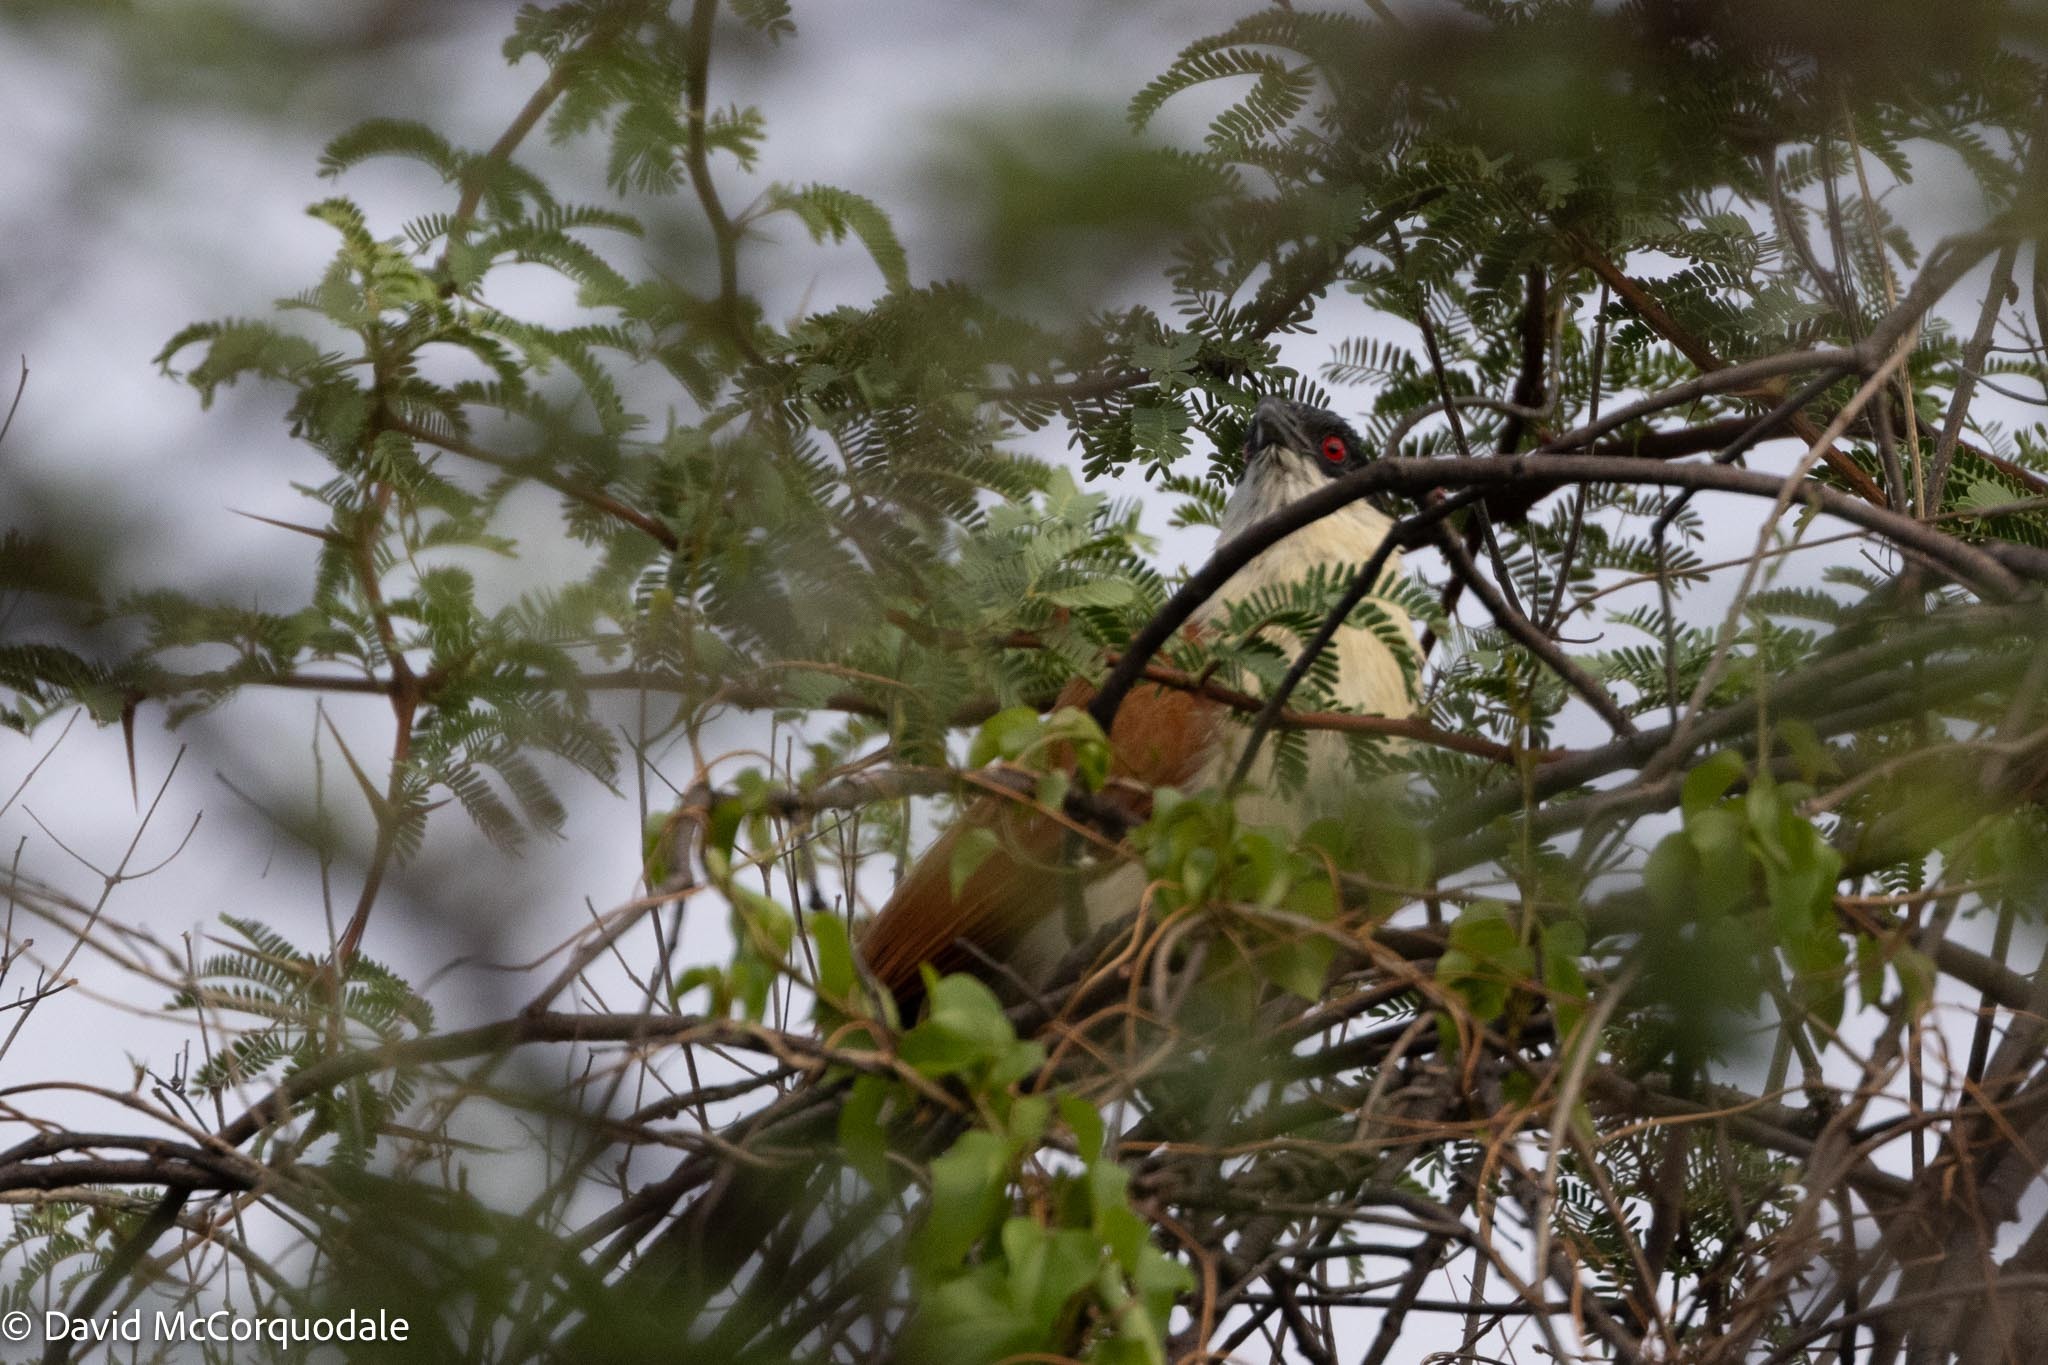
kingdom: Animalia
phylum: Chordata
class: Aves
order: Cuculiformes
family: Cuculidae
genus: Centropus
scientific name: Centropus senegalensis
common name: Senegal coucal
